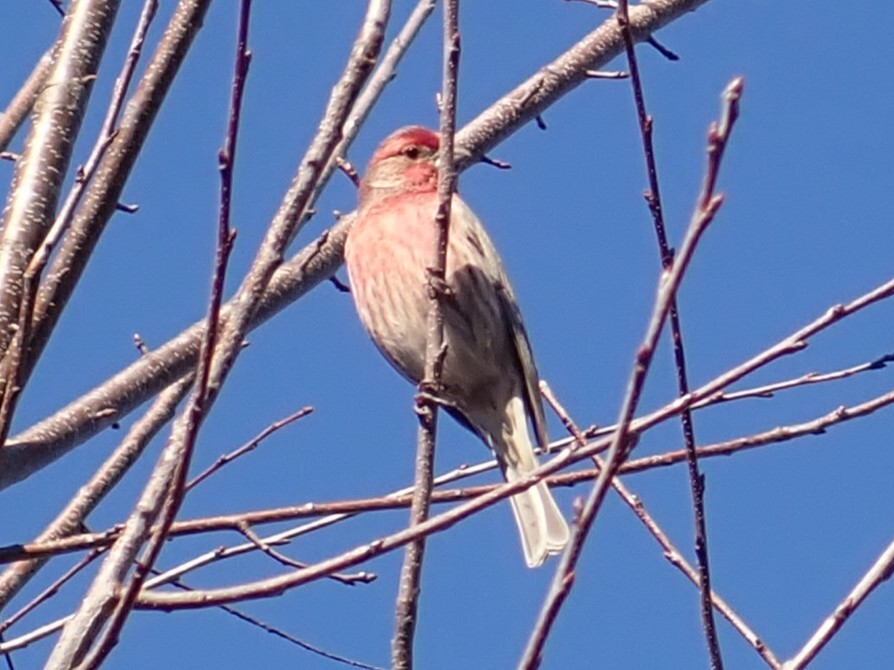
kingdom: Animalia
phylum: Chordata
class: Aves
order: Passeriformes
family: Fringillidae
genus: Haemorhous
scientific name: Haemorhous mexicanus
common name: House finch
